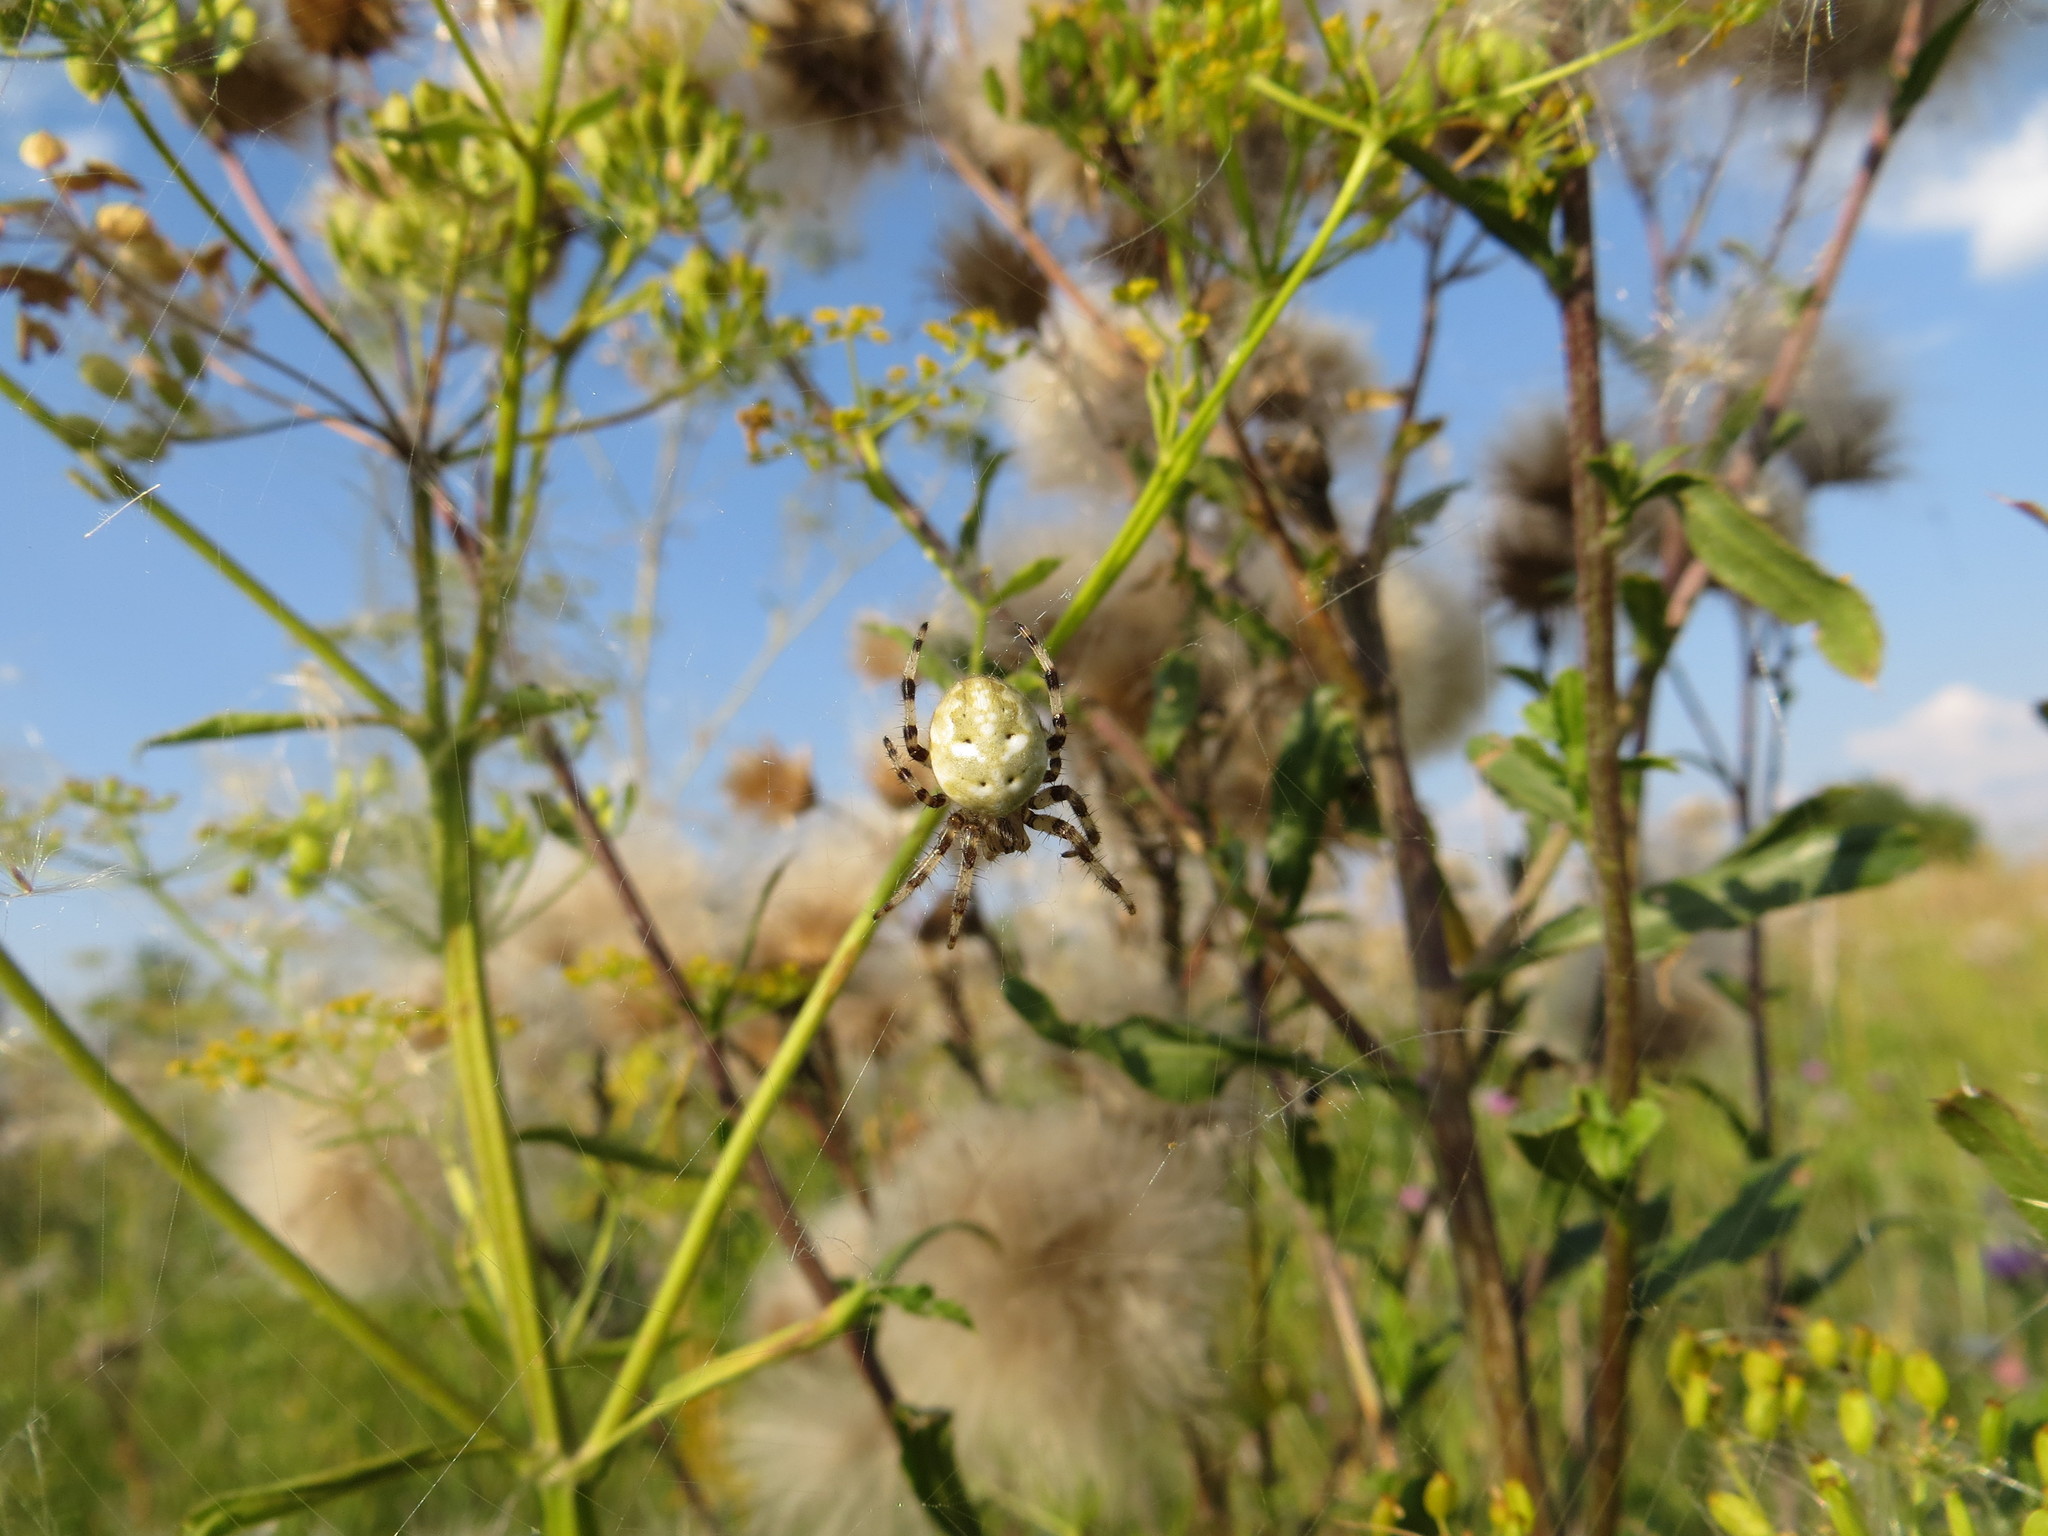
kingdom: Animalia
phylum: Arthropoda
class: Arachnida
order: Araneae
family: Araneidae
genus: Araneus
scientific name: Araneus quadratus
